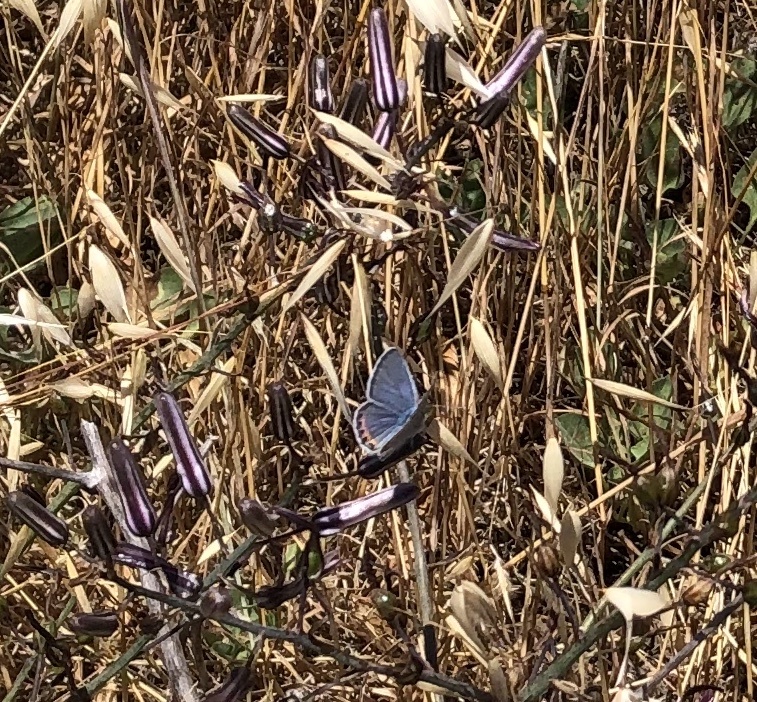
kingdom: Animalia
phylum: Arthropoda
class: Insecta
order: Lepidoptera
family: Lycaenidae
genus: Icaricia
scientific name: Icaricia acmon
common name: Acmon blue
